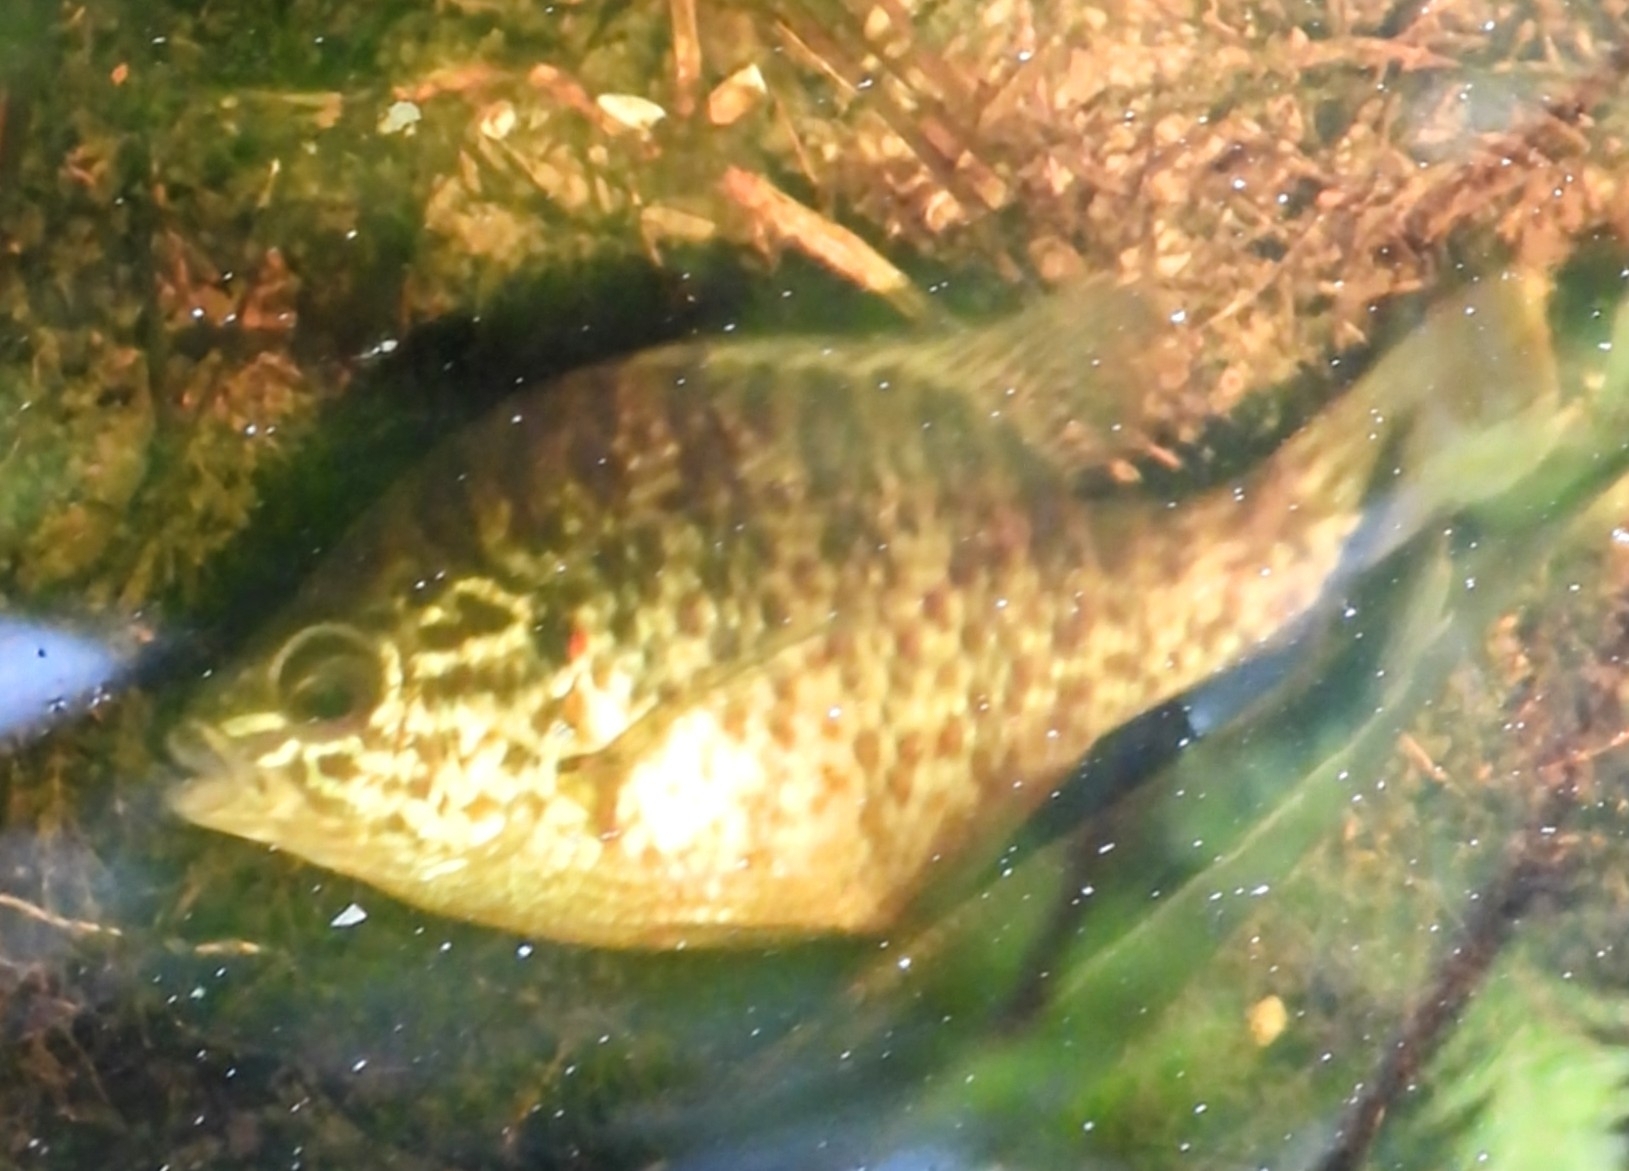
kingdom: Animalia
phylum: Chordata
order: Perciformes
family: Centrarchidae
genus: Lepomis
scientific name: Lepomis gibbosus
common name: Pumpkinseed
